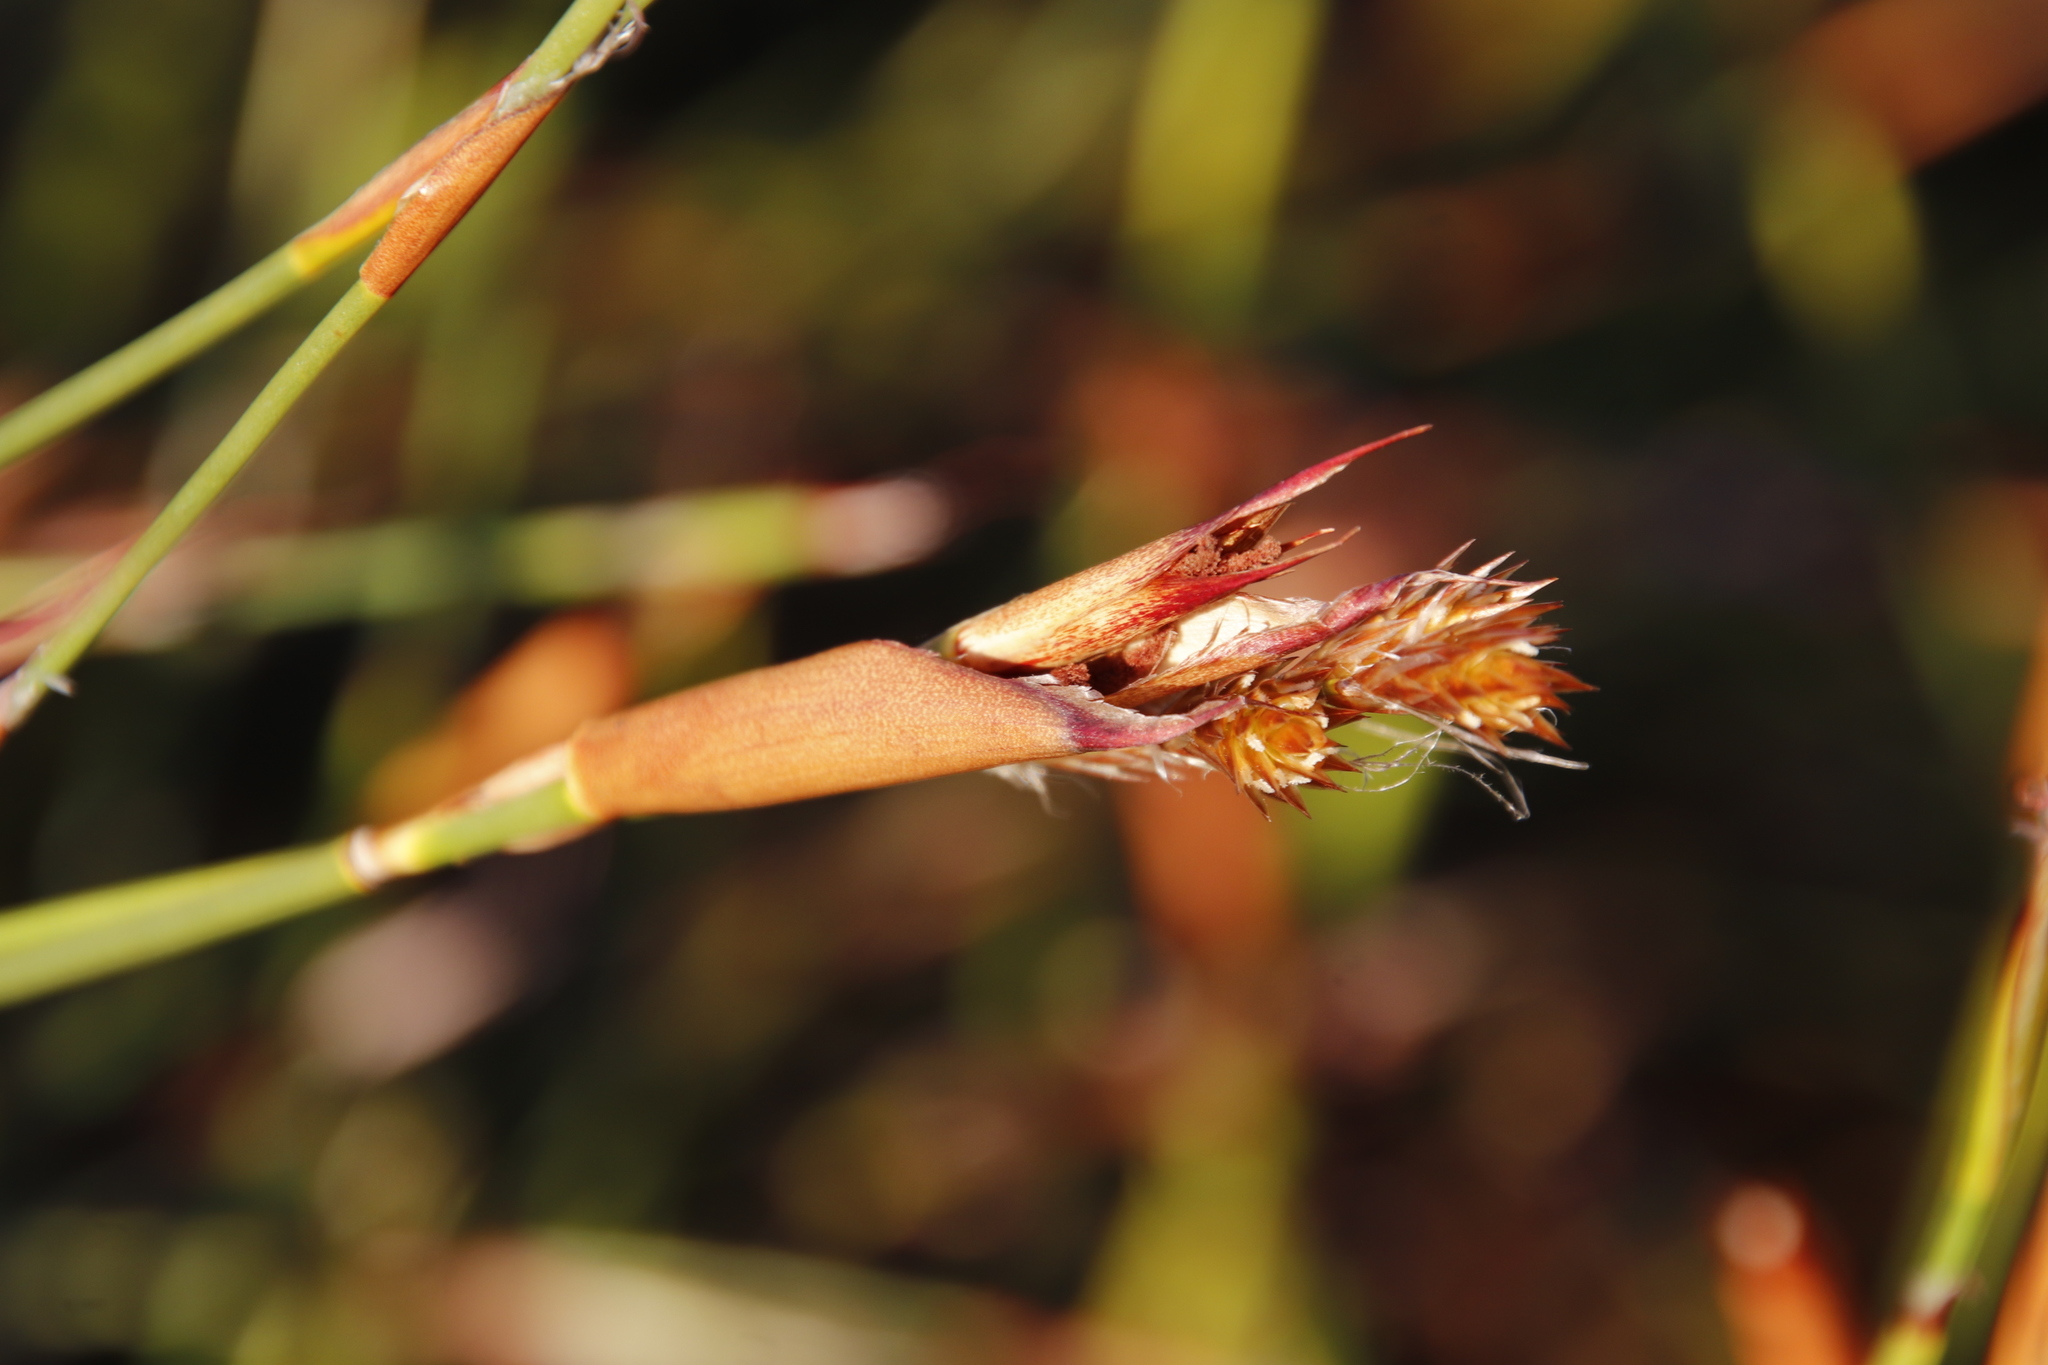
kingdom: Plantae
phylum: Tracheophyta
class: Liliopsida
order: Poales
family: Restionaceae
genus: Willdenowia
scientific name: Willdenowia glomerata
